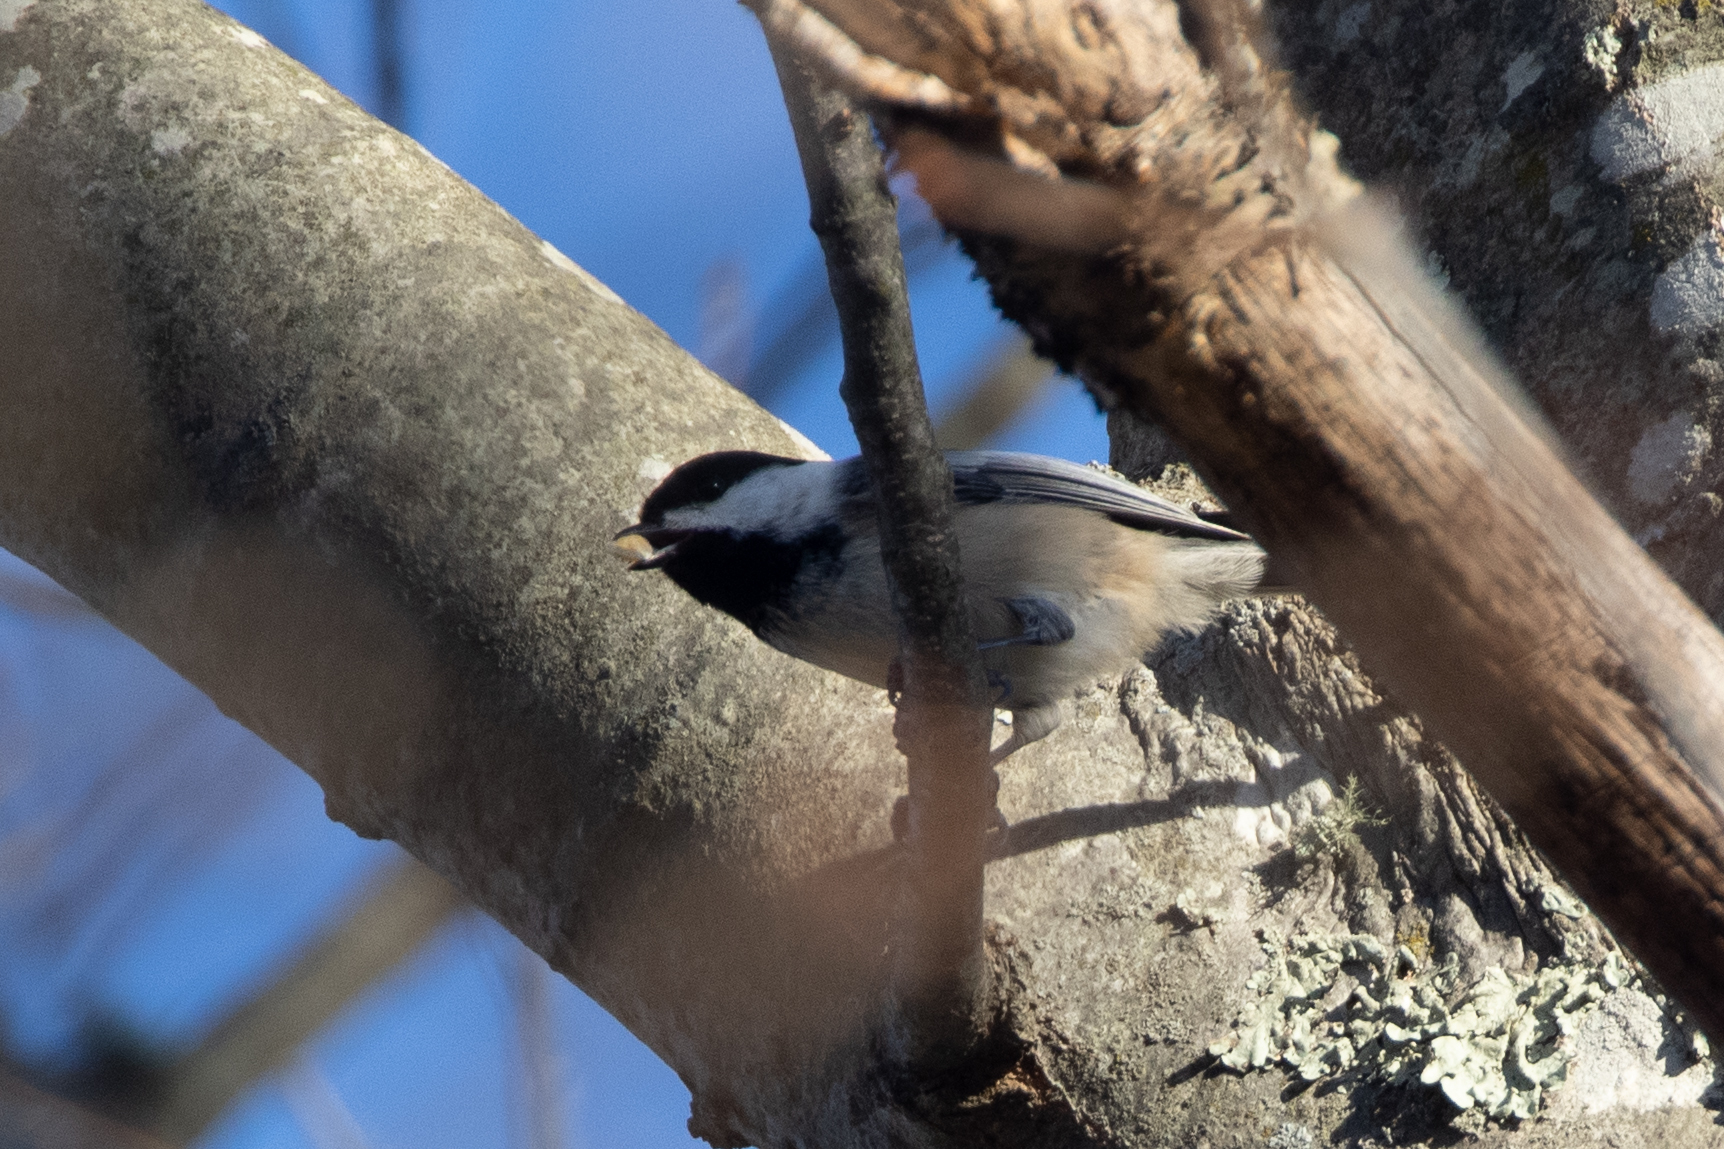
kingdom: Animalia
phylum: Chordata
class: Aves
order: Passeriformes
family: Paridae
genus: Poecile
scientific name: Poecile atricapillus
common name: Black-capped chickadee
